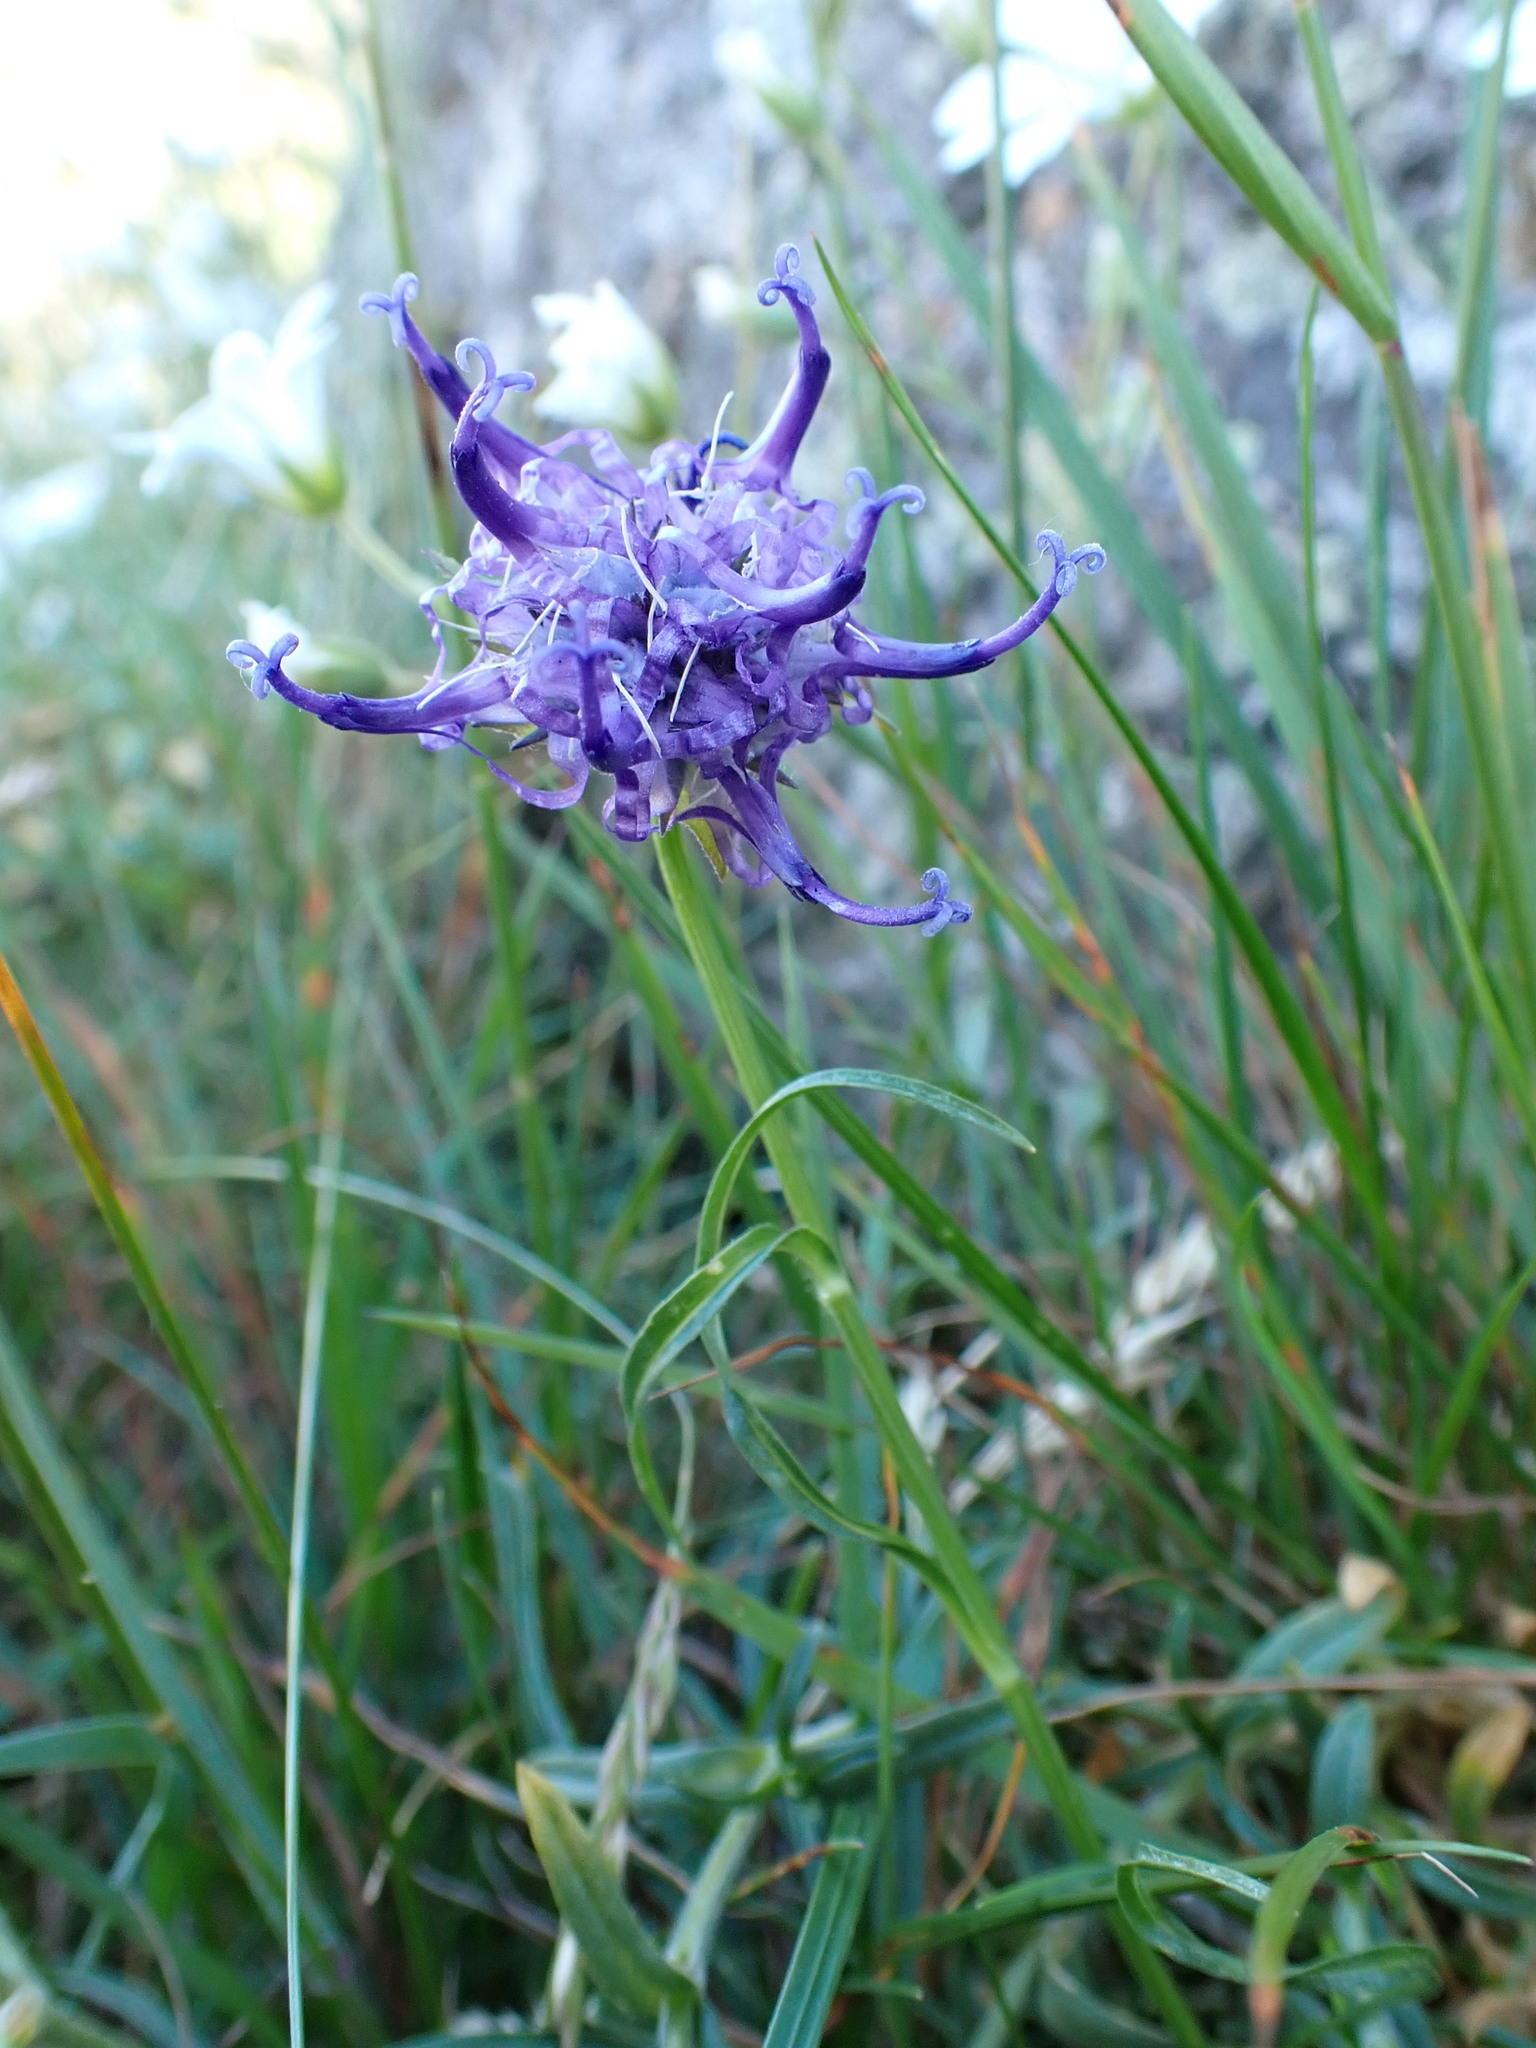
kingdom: Plantae
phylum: Tracheophyta
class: Magnoliopsida
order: Asterales
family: Campanulaceae
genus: Phyteuma
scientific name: Phyteuma hemisphaericum
